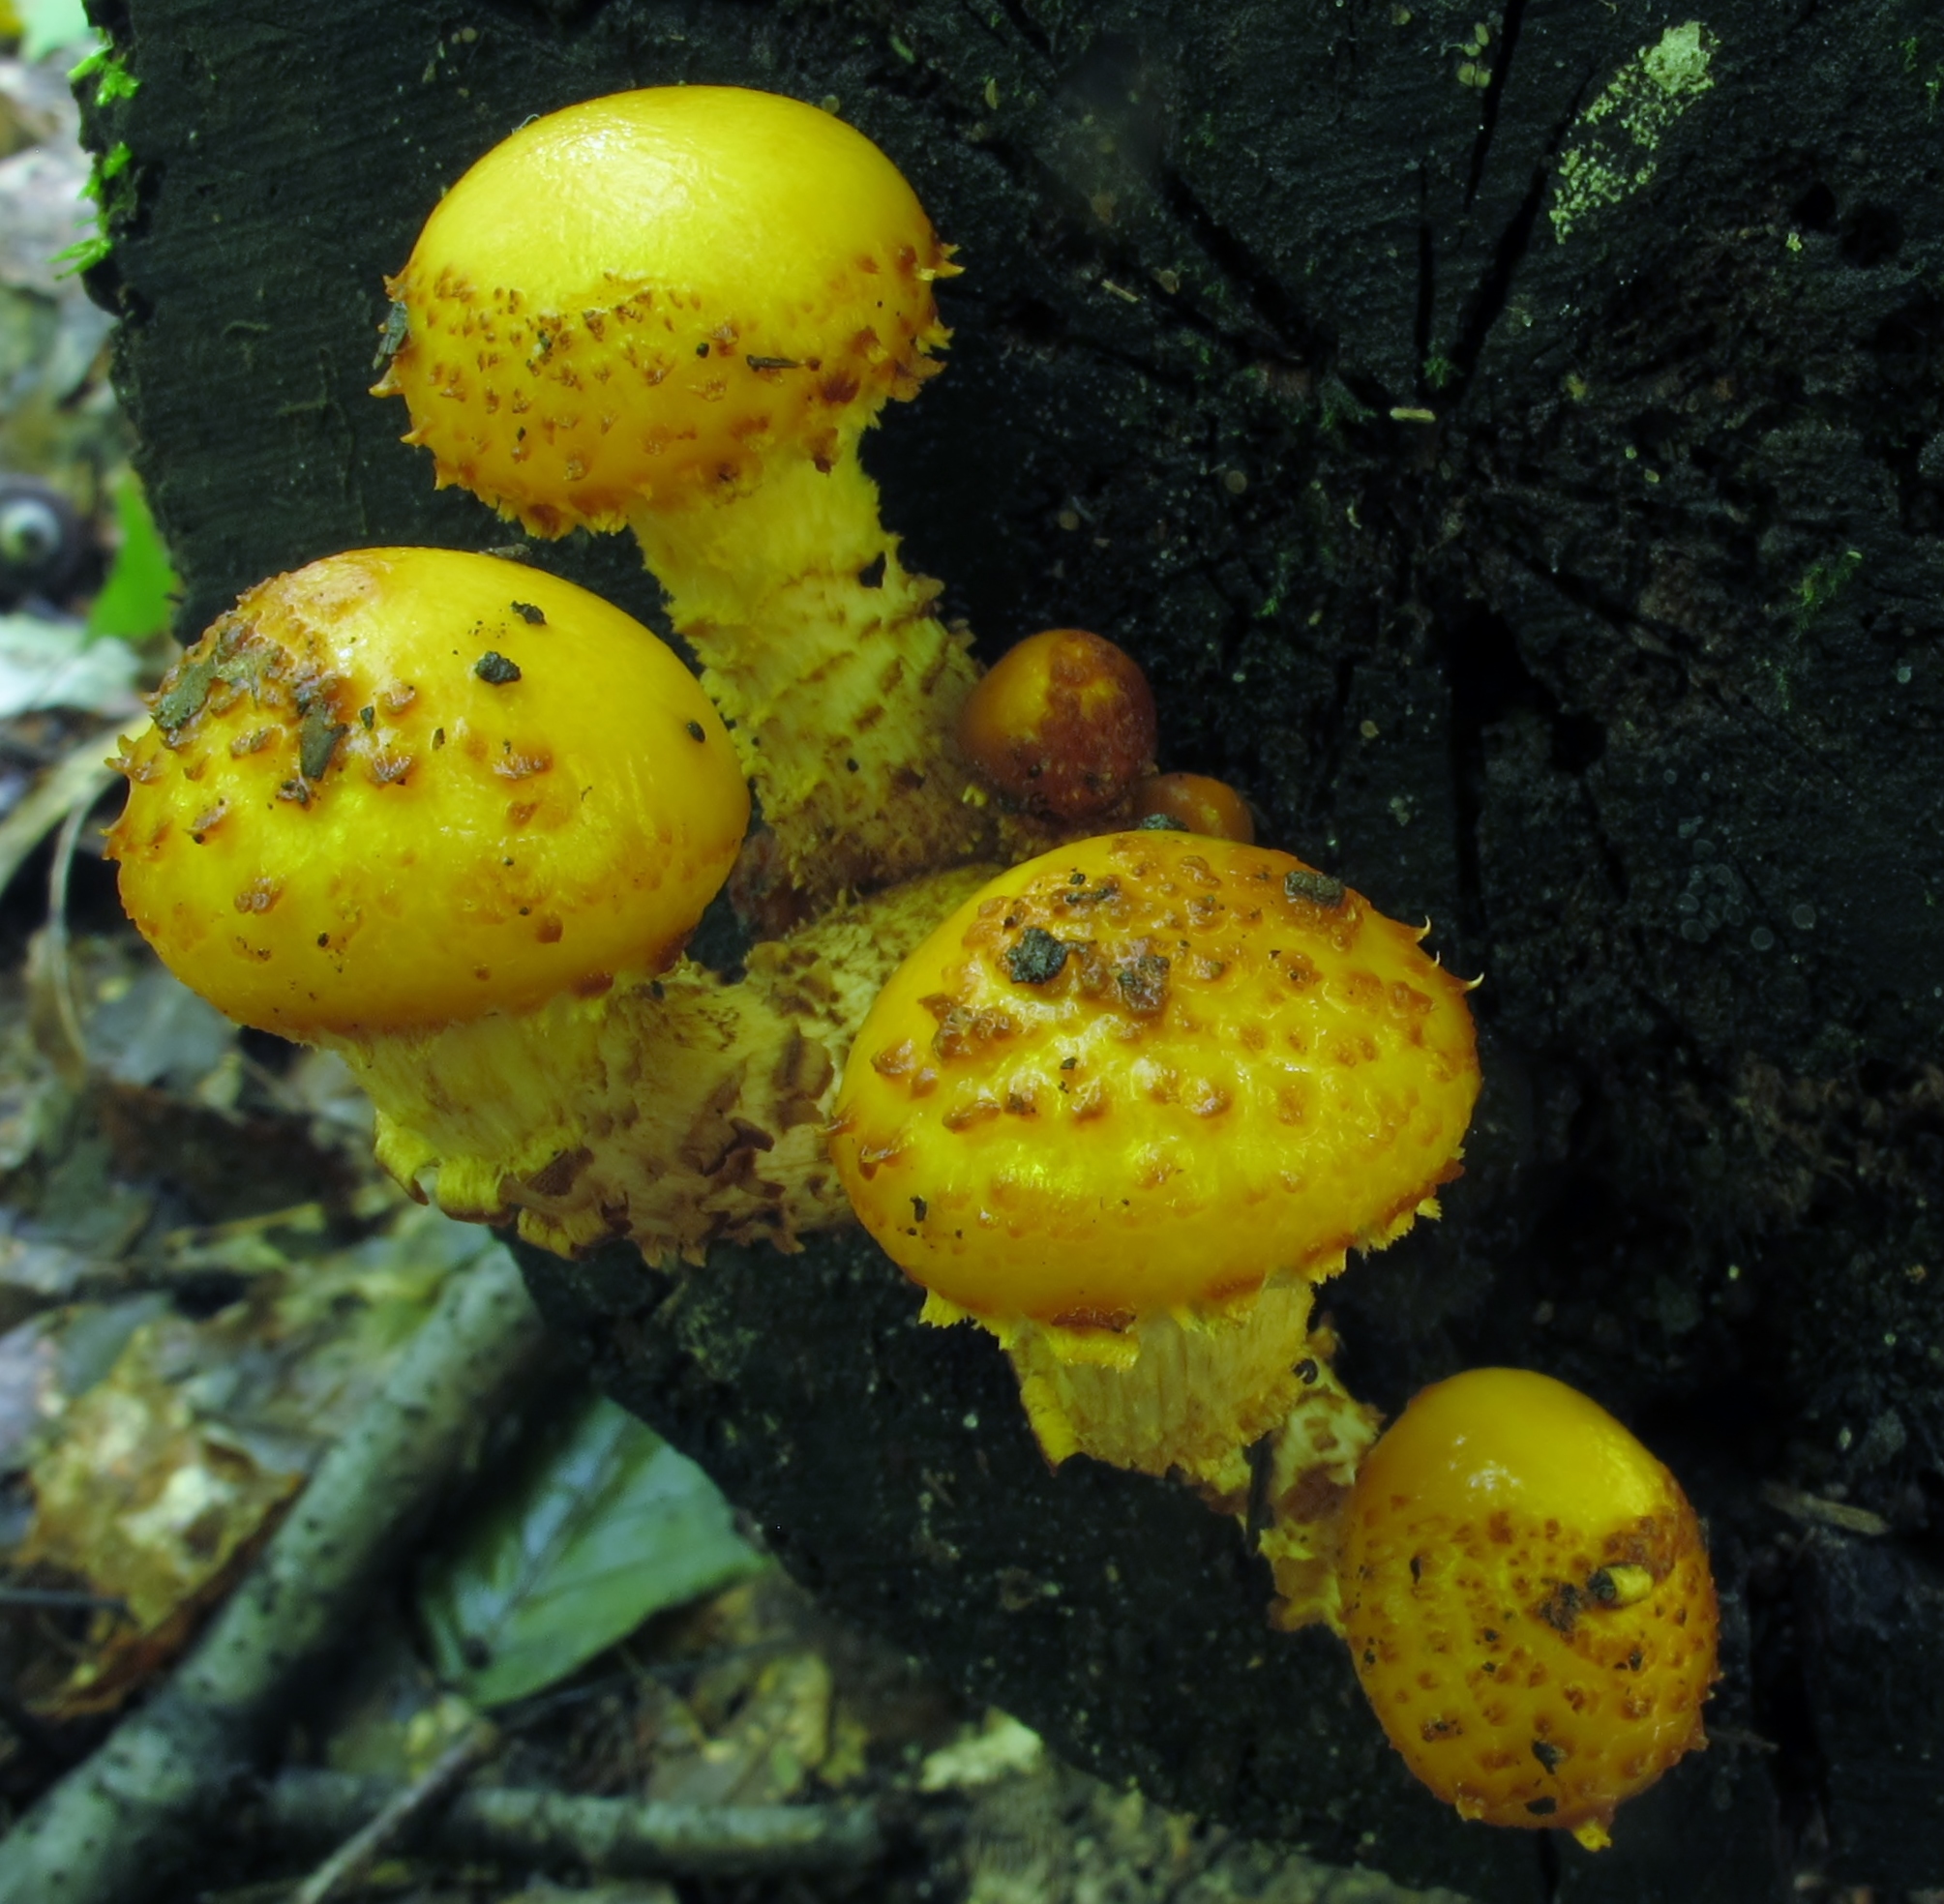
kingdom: Fungi
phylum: Basidiomycota
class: Agaricomycetes
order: Agaricales
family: Strophariaceae
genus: Pholiota
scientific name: Pholiota aurivella
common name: Golden scalycap
